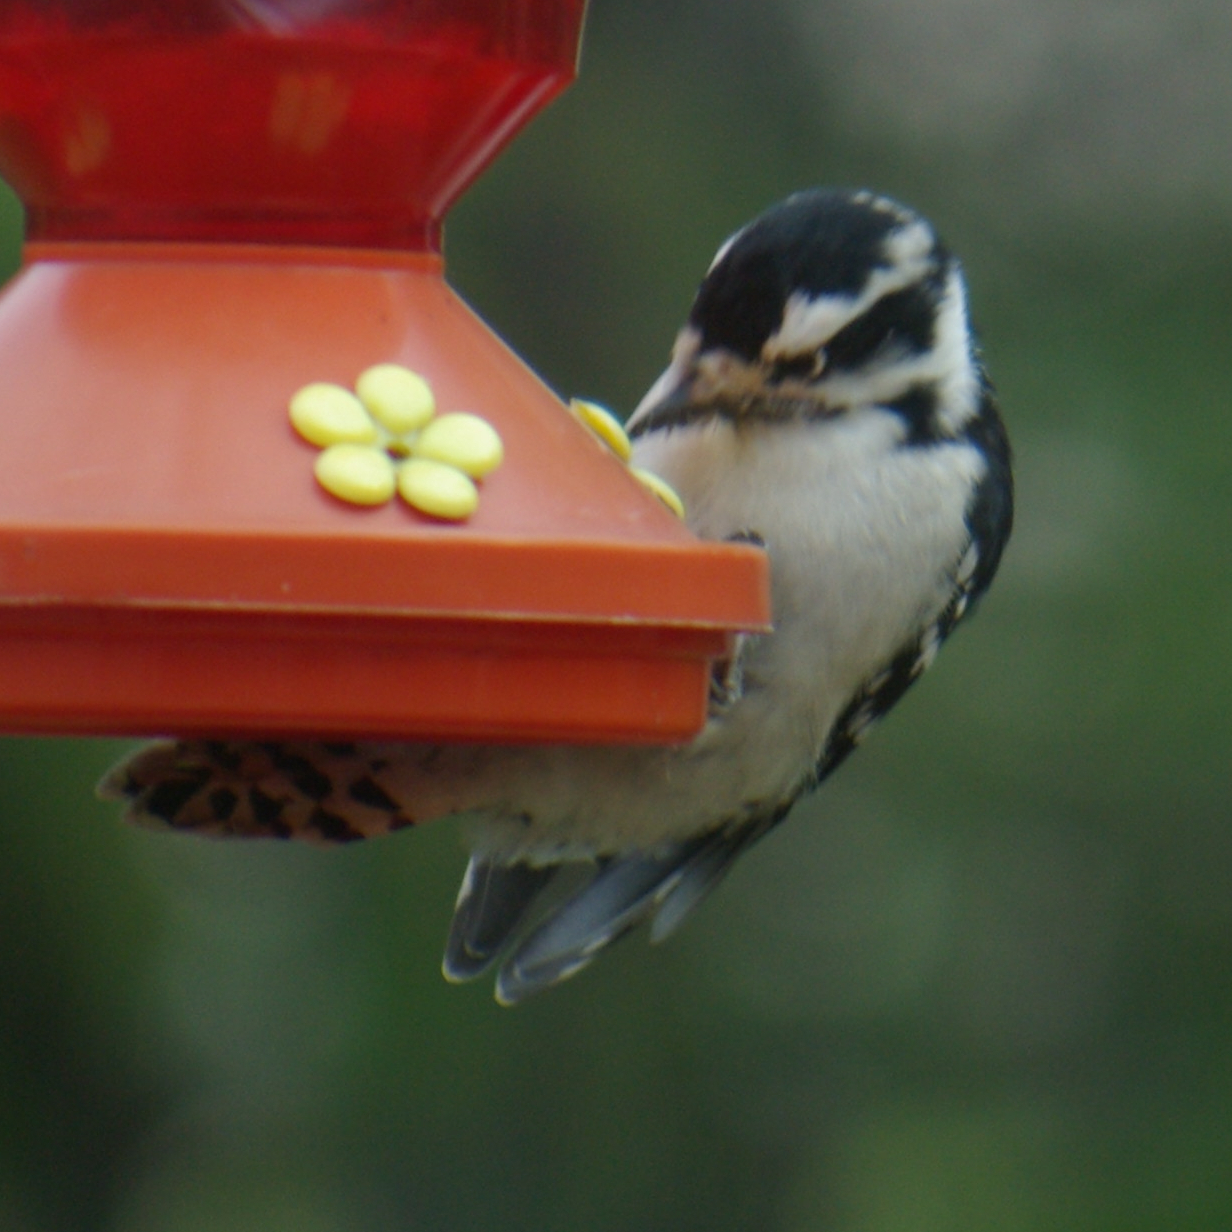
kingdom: Animalia
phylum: Chordata
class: Aves
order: Piciformes
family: Picidae
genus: Dryobates
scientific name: Dryobates pubescens
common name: Downy woodpecker
